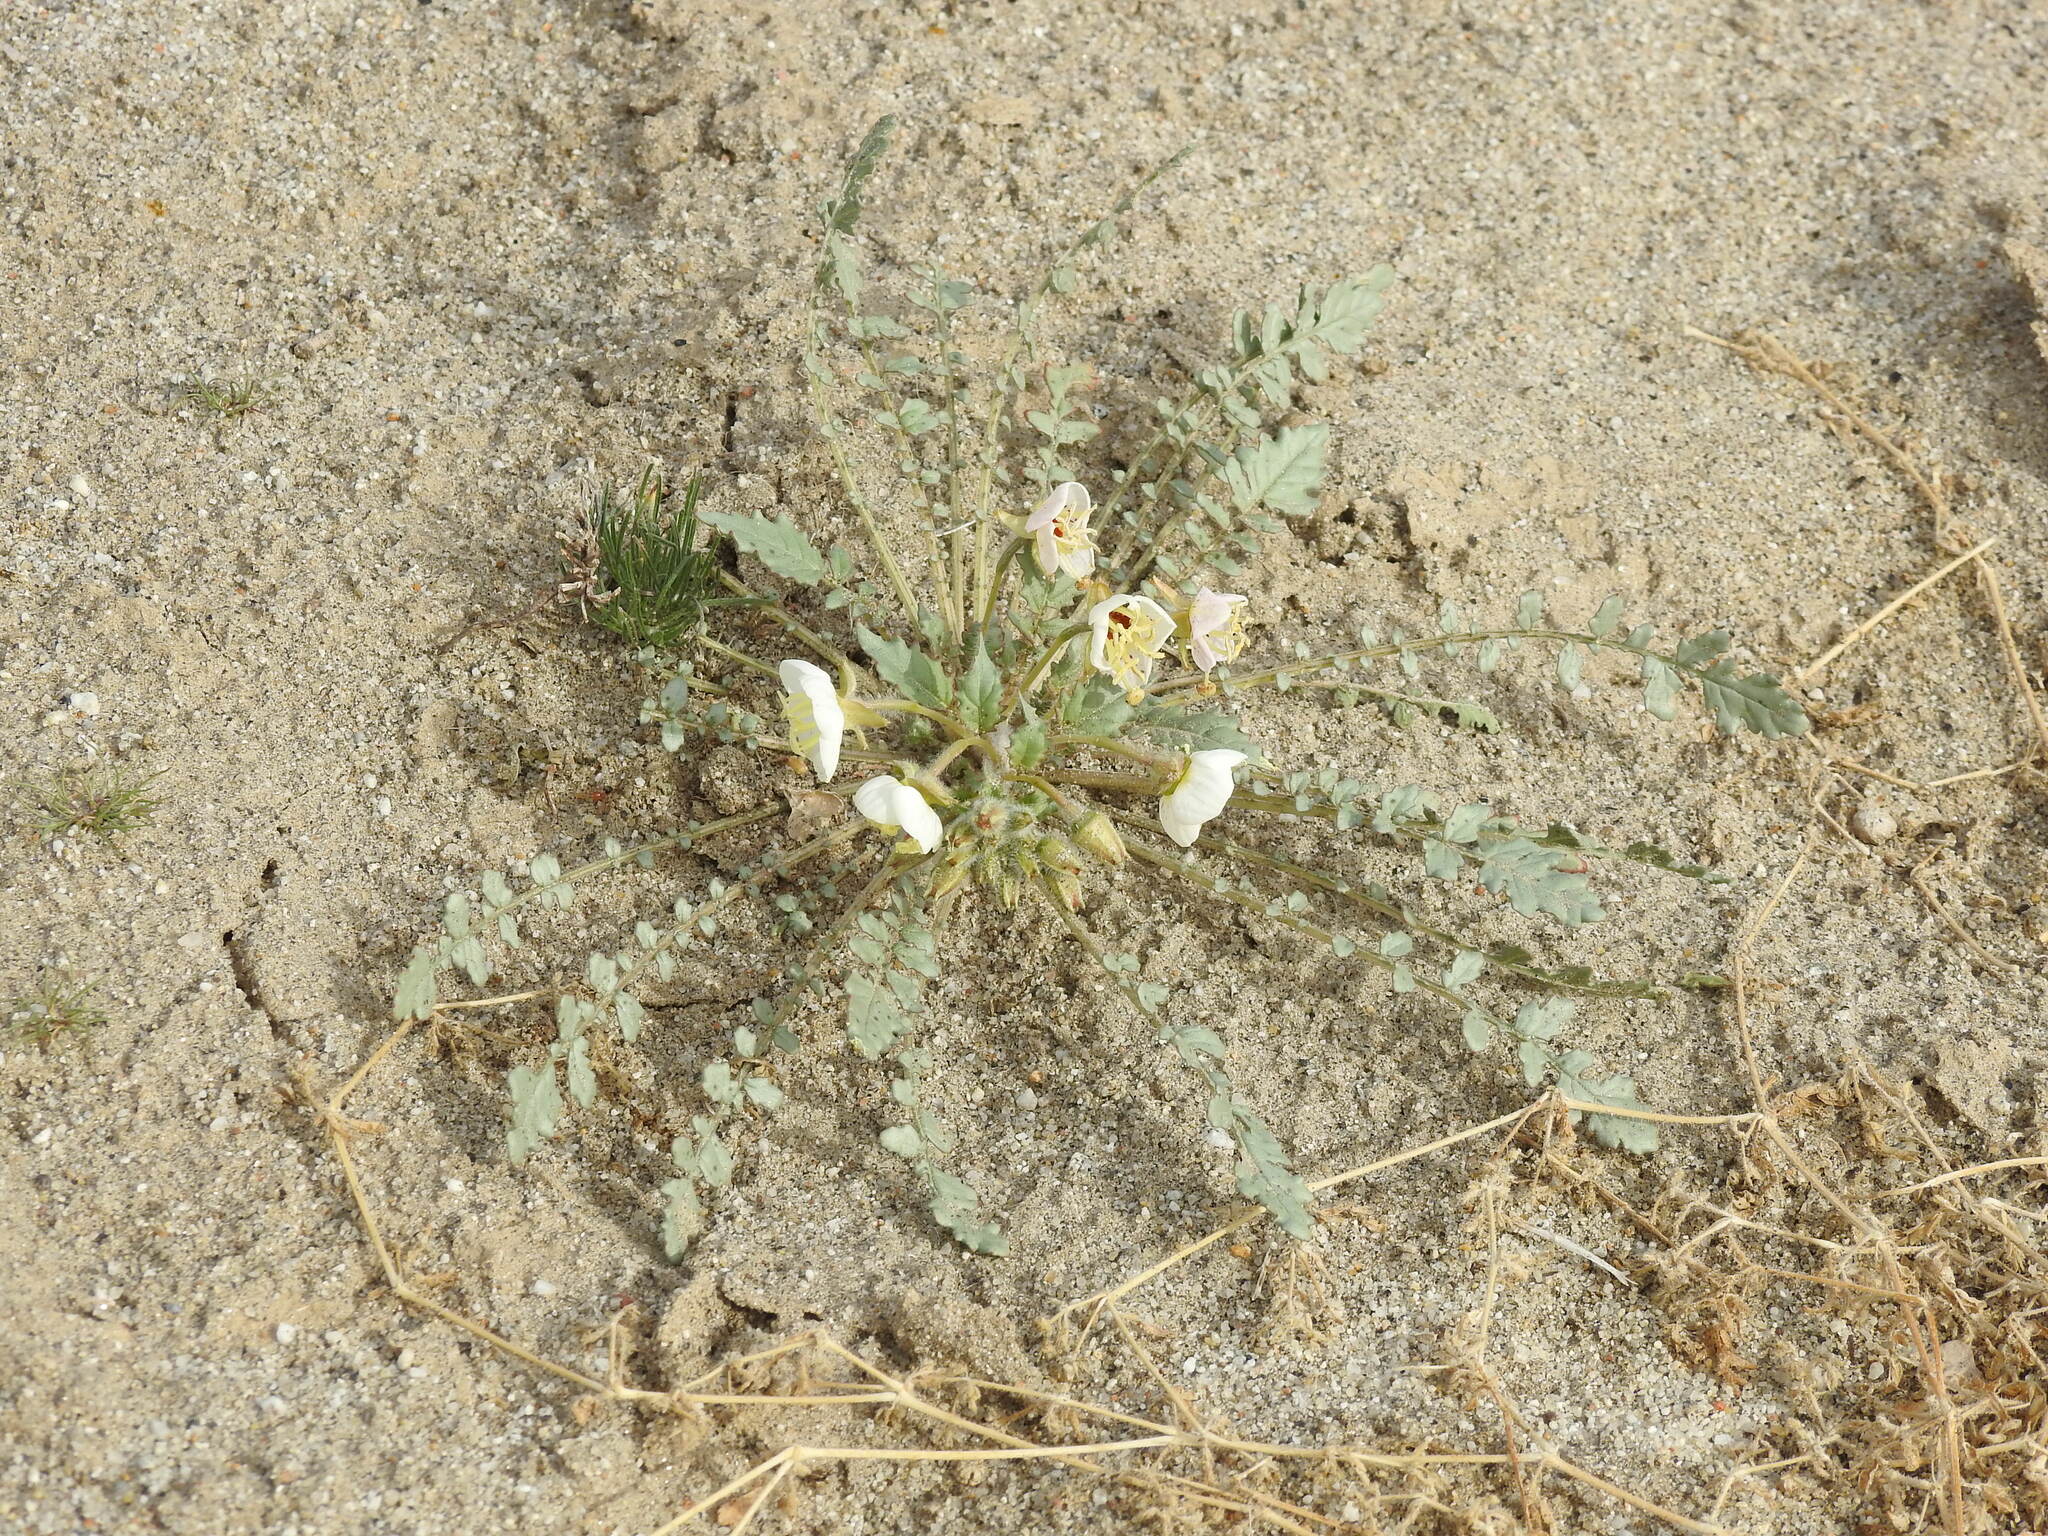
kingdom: Plantae
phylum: Tracheophyta
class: Magnoliopsida
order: Myrtales
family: Onagraceae
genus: Chylismia
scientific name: Chylismia claviformis
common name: Browneyes
